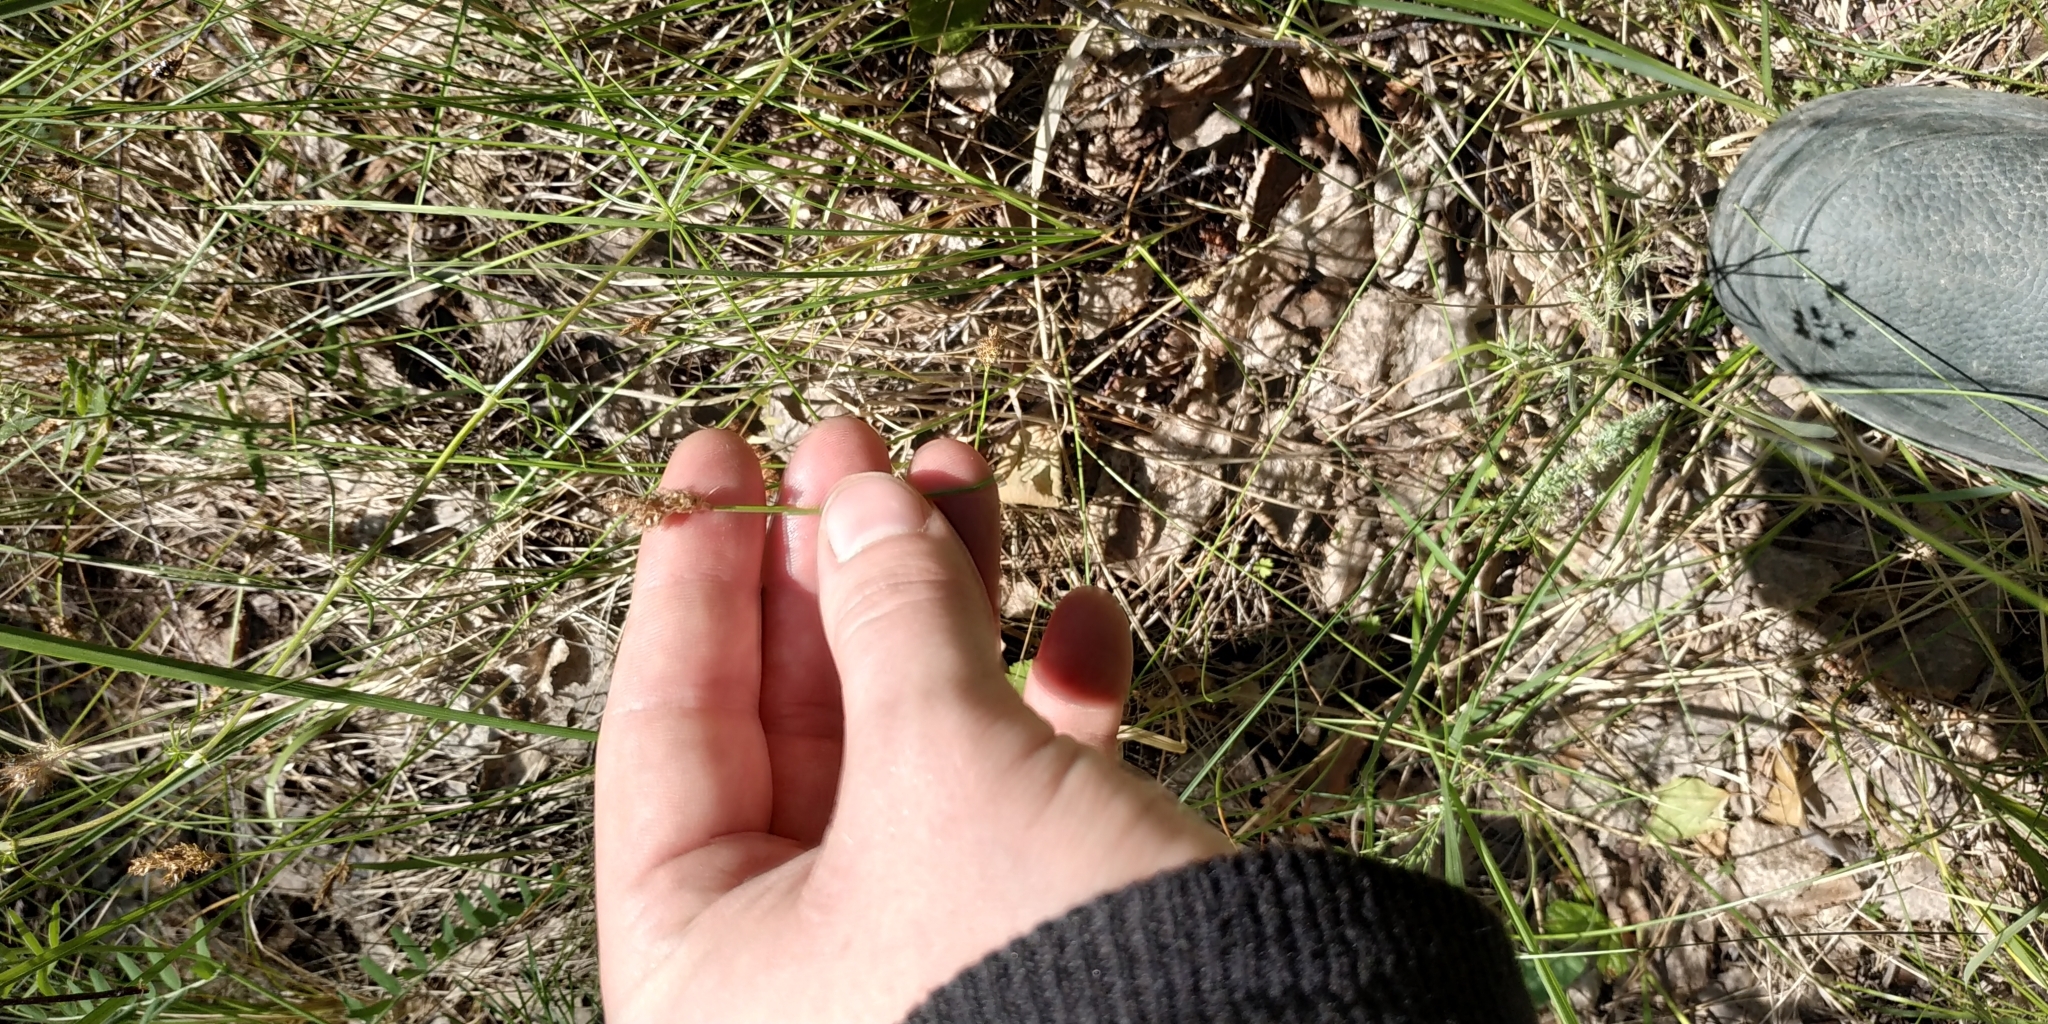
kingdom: Plantae
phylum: Tracheophyta
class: Liliopsida
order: Poales
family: Cyperaceae
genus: Carex
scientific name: Carex praecox
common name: Early sedge
